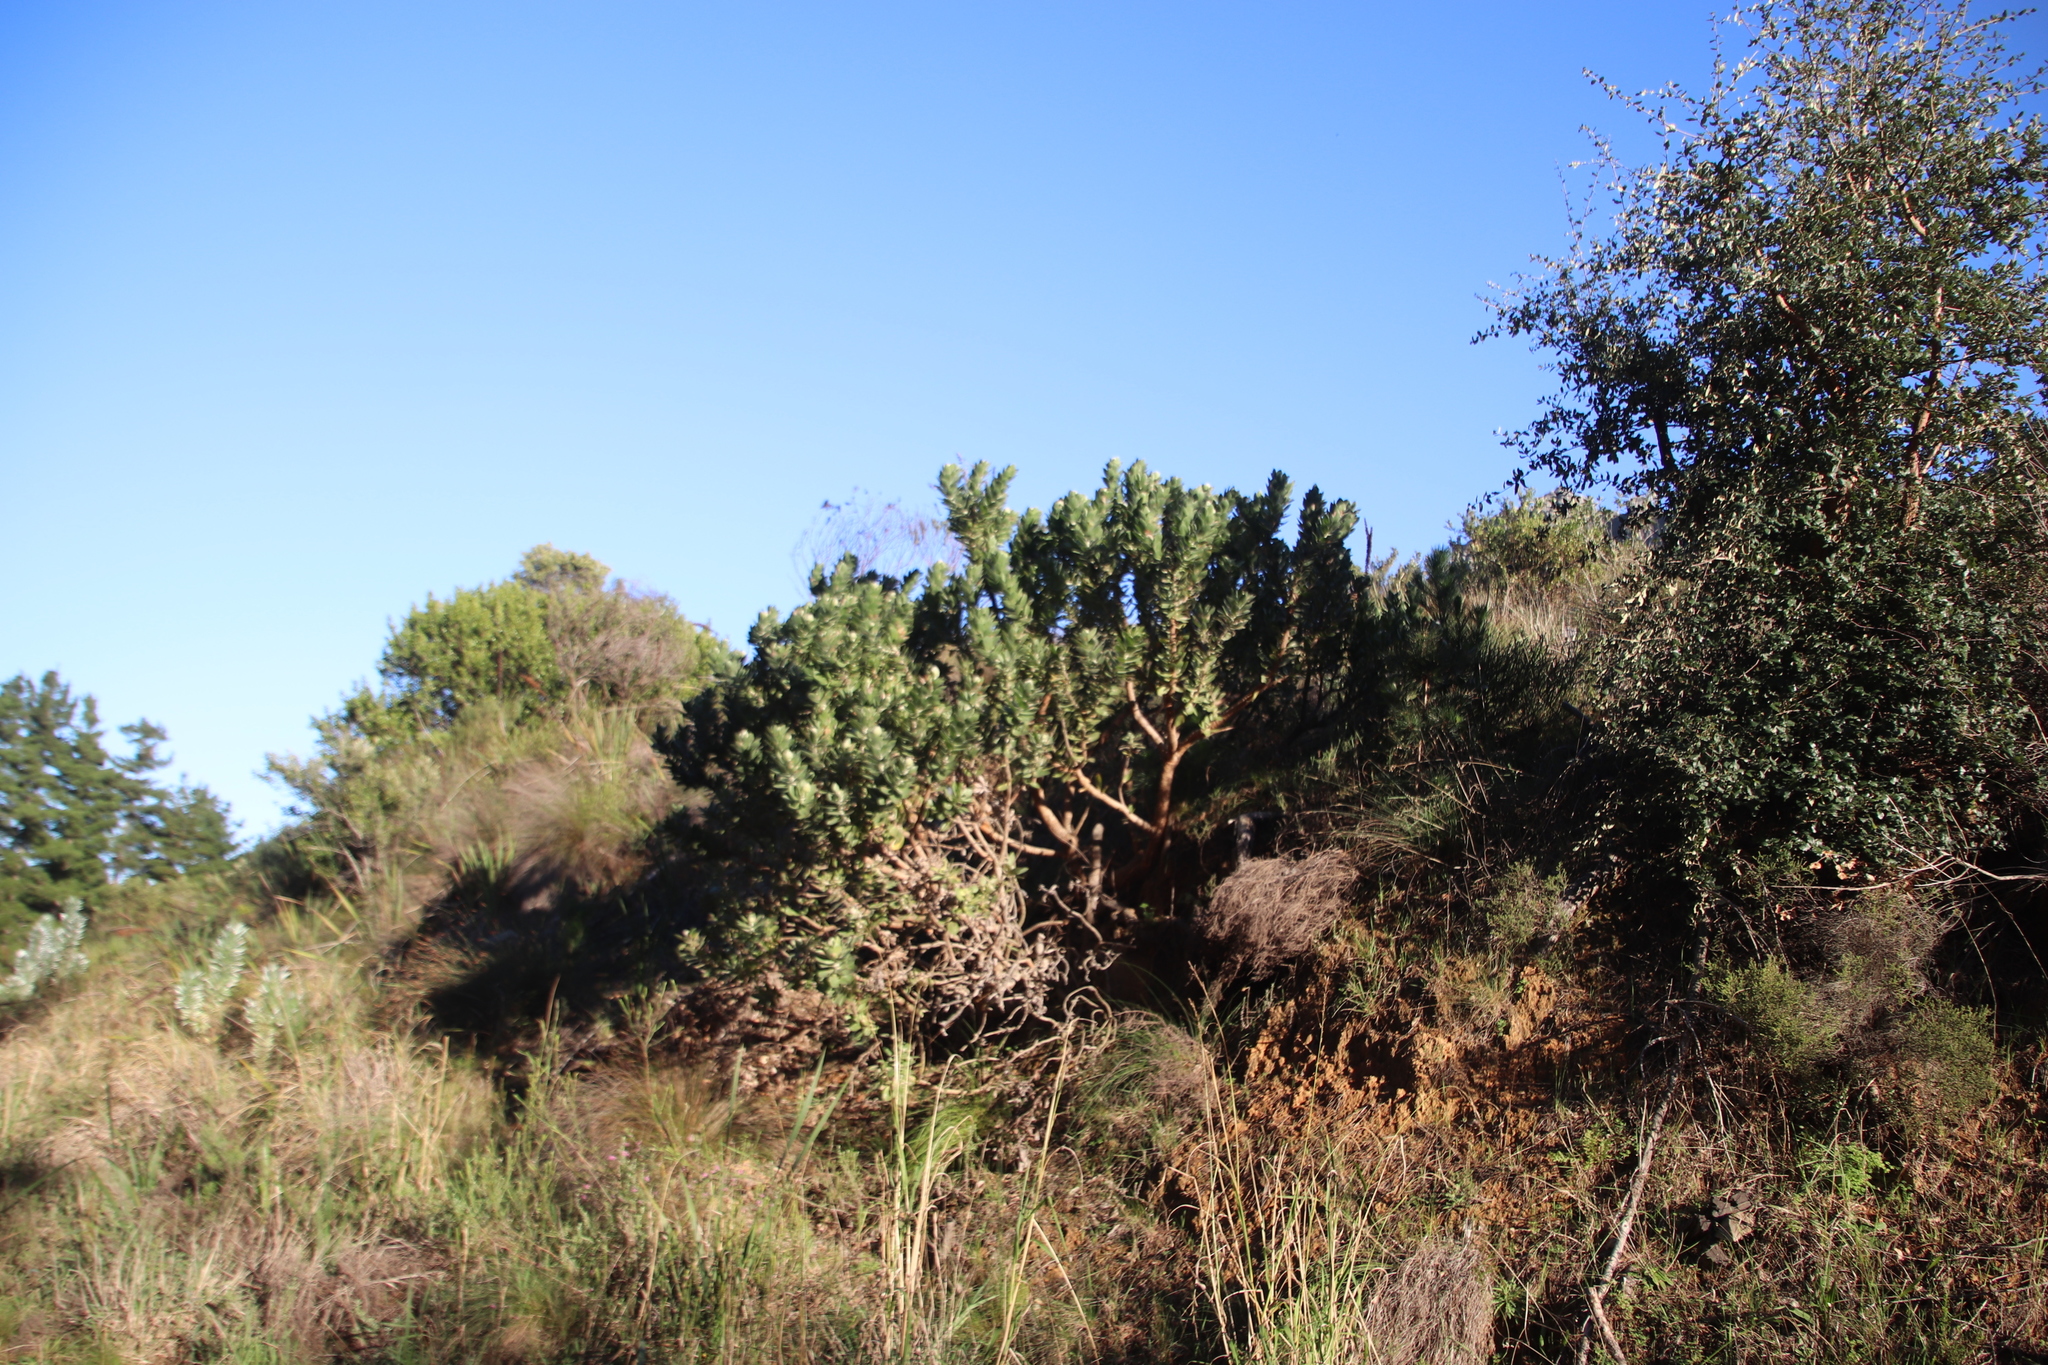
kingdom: Plantae
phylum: Tracheophyta
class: Magnoliopsida
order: Proteales
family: Proteaceae
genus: Leucospermum
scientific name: Leucospermum conocarpodendron
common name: Tree pincushion
